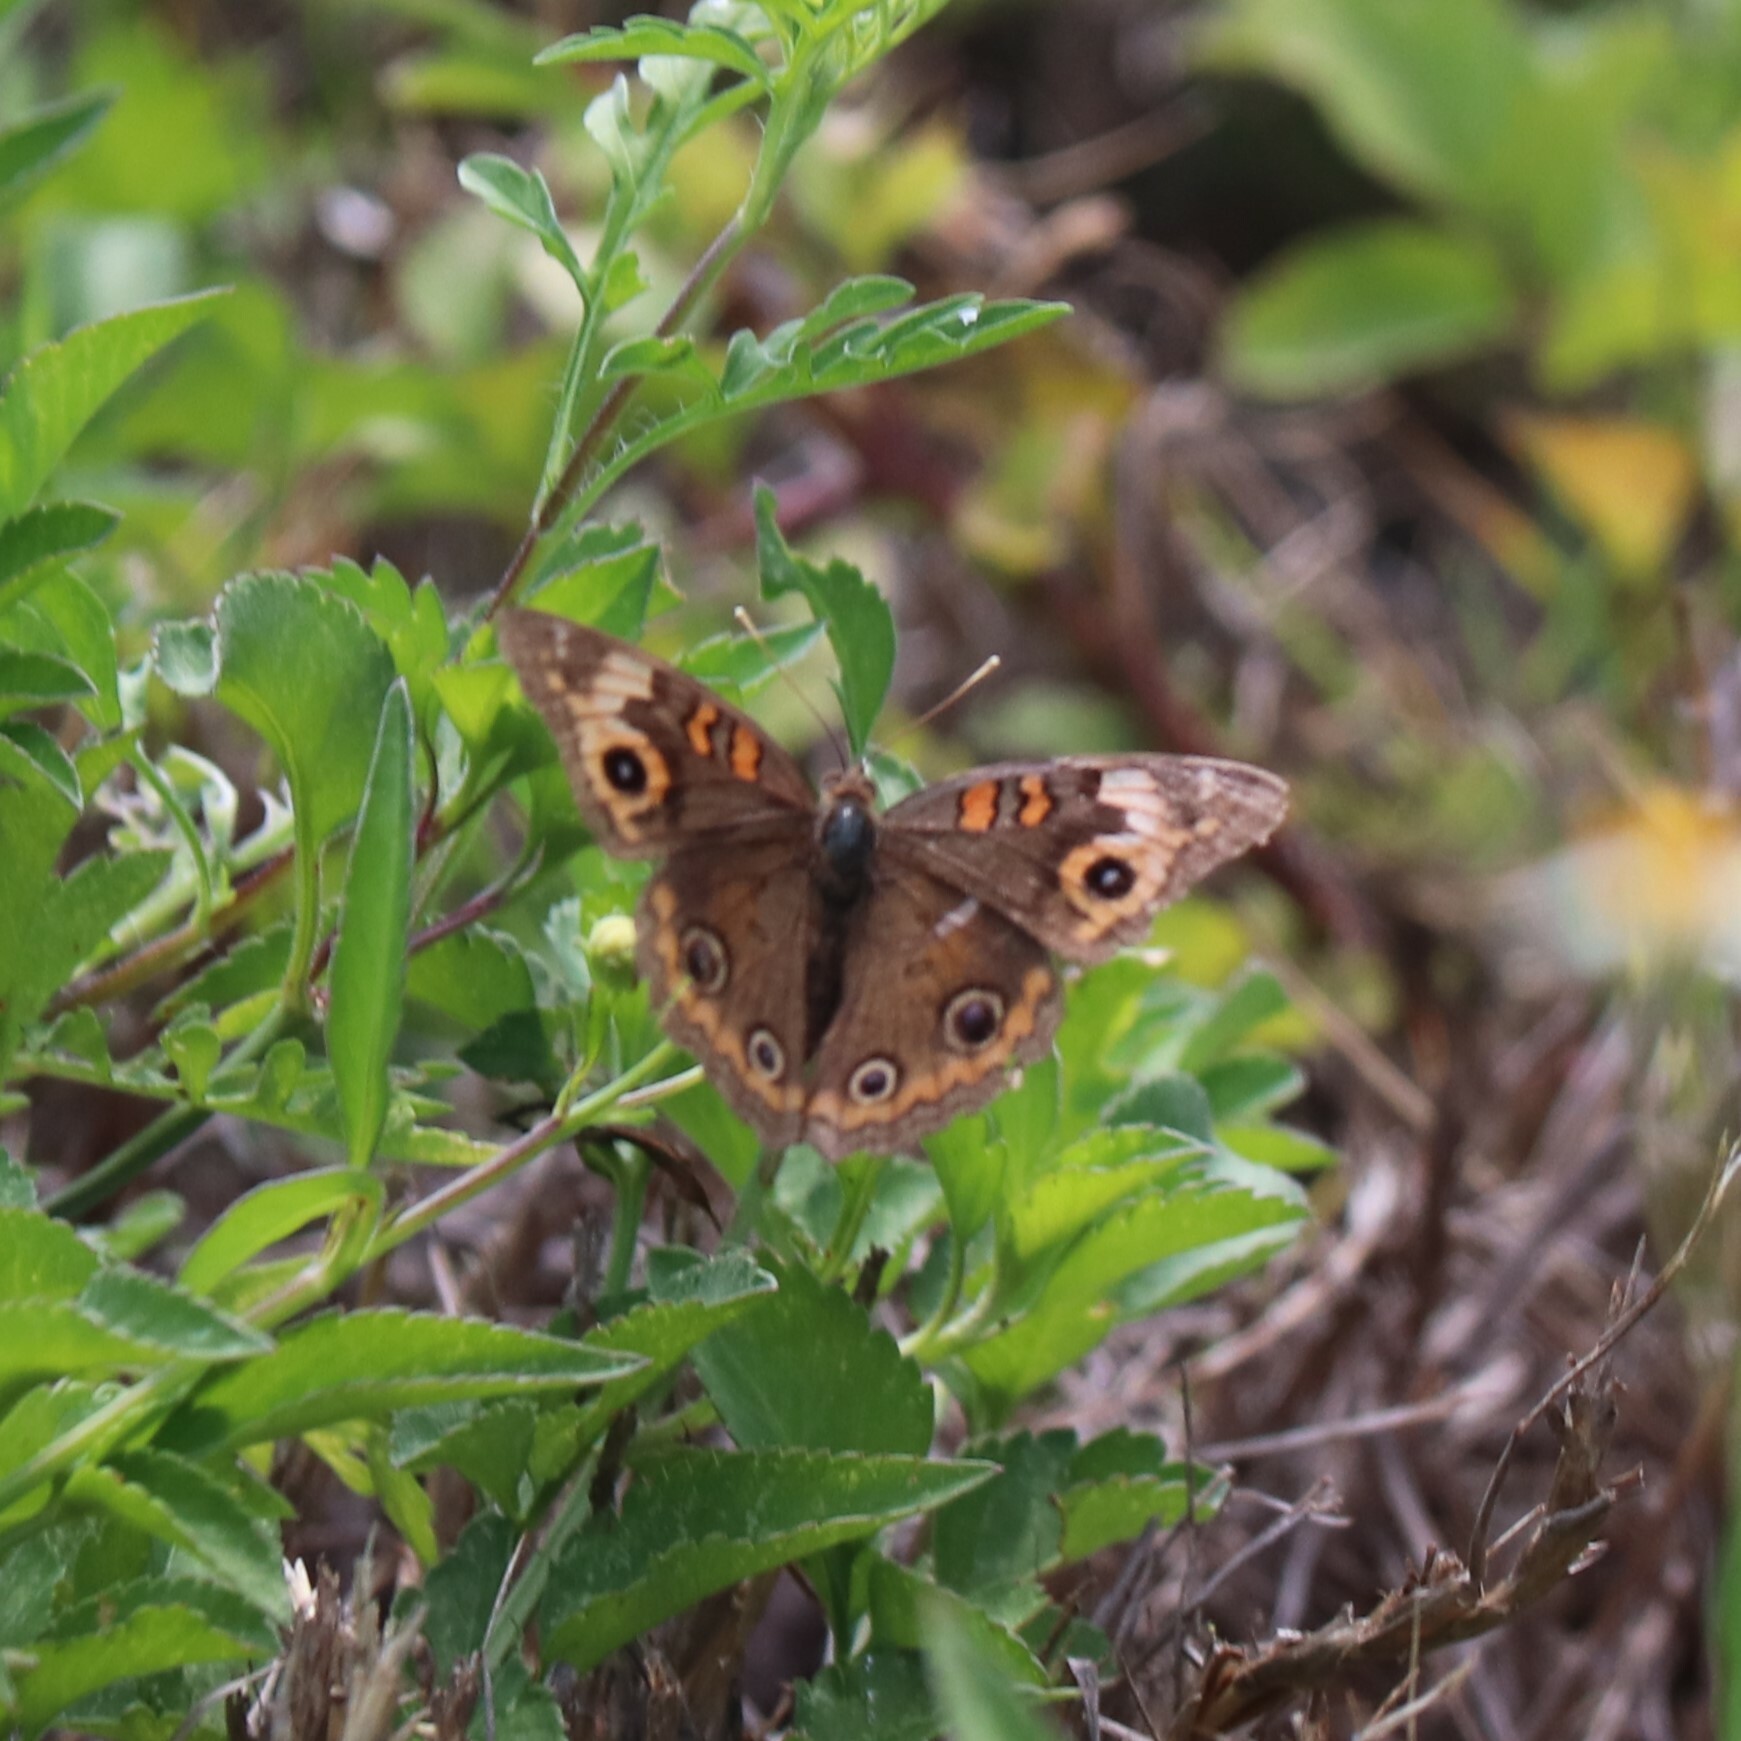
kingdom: Animalia
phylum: Arthropoda
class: Insecta
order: Lepidoptera
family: Nymphalidae
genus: Junonia
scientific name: Junonia neildi
